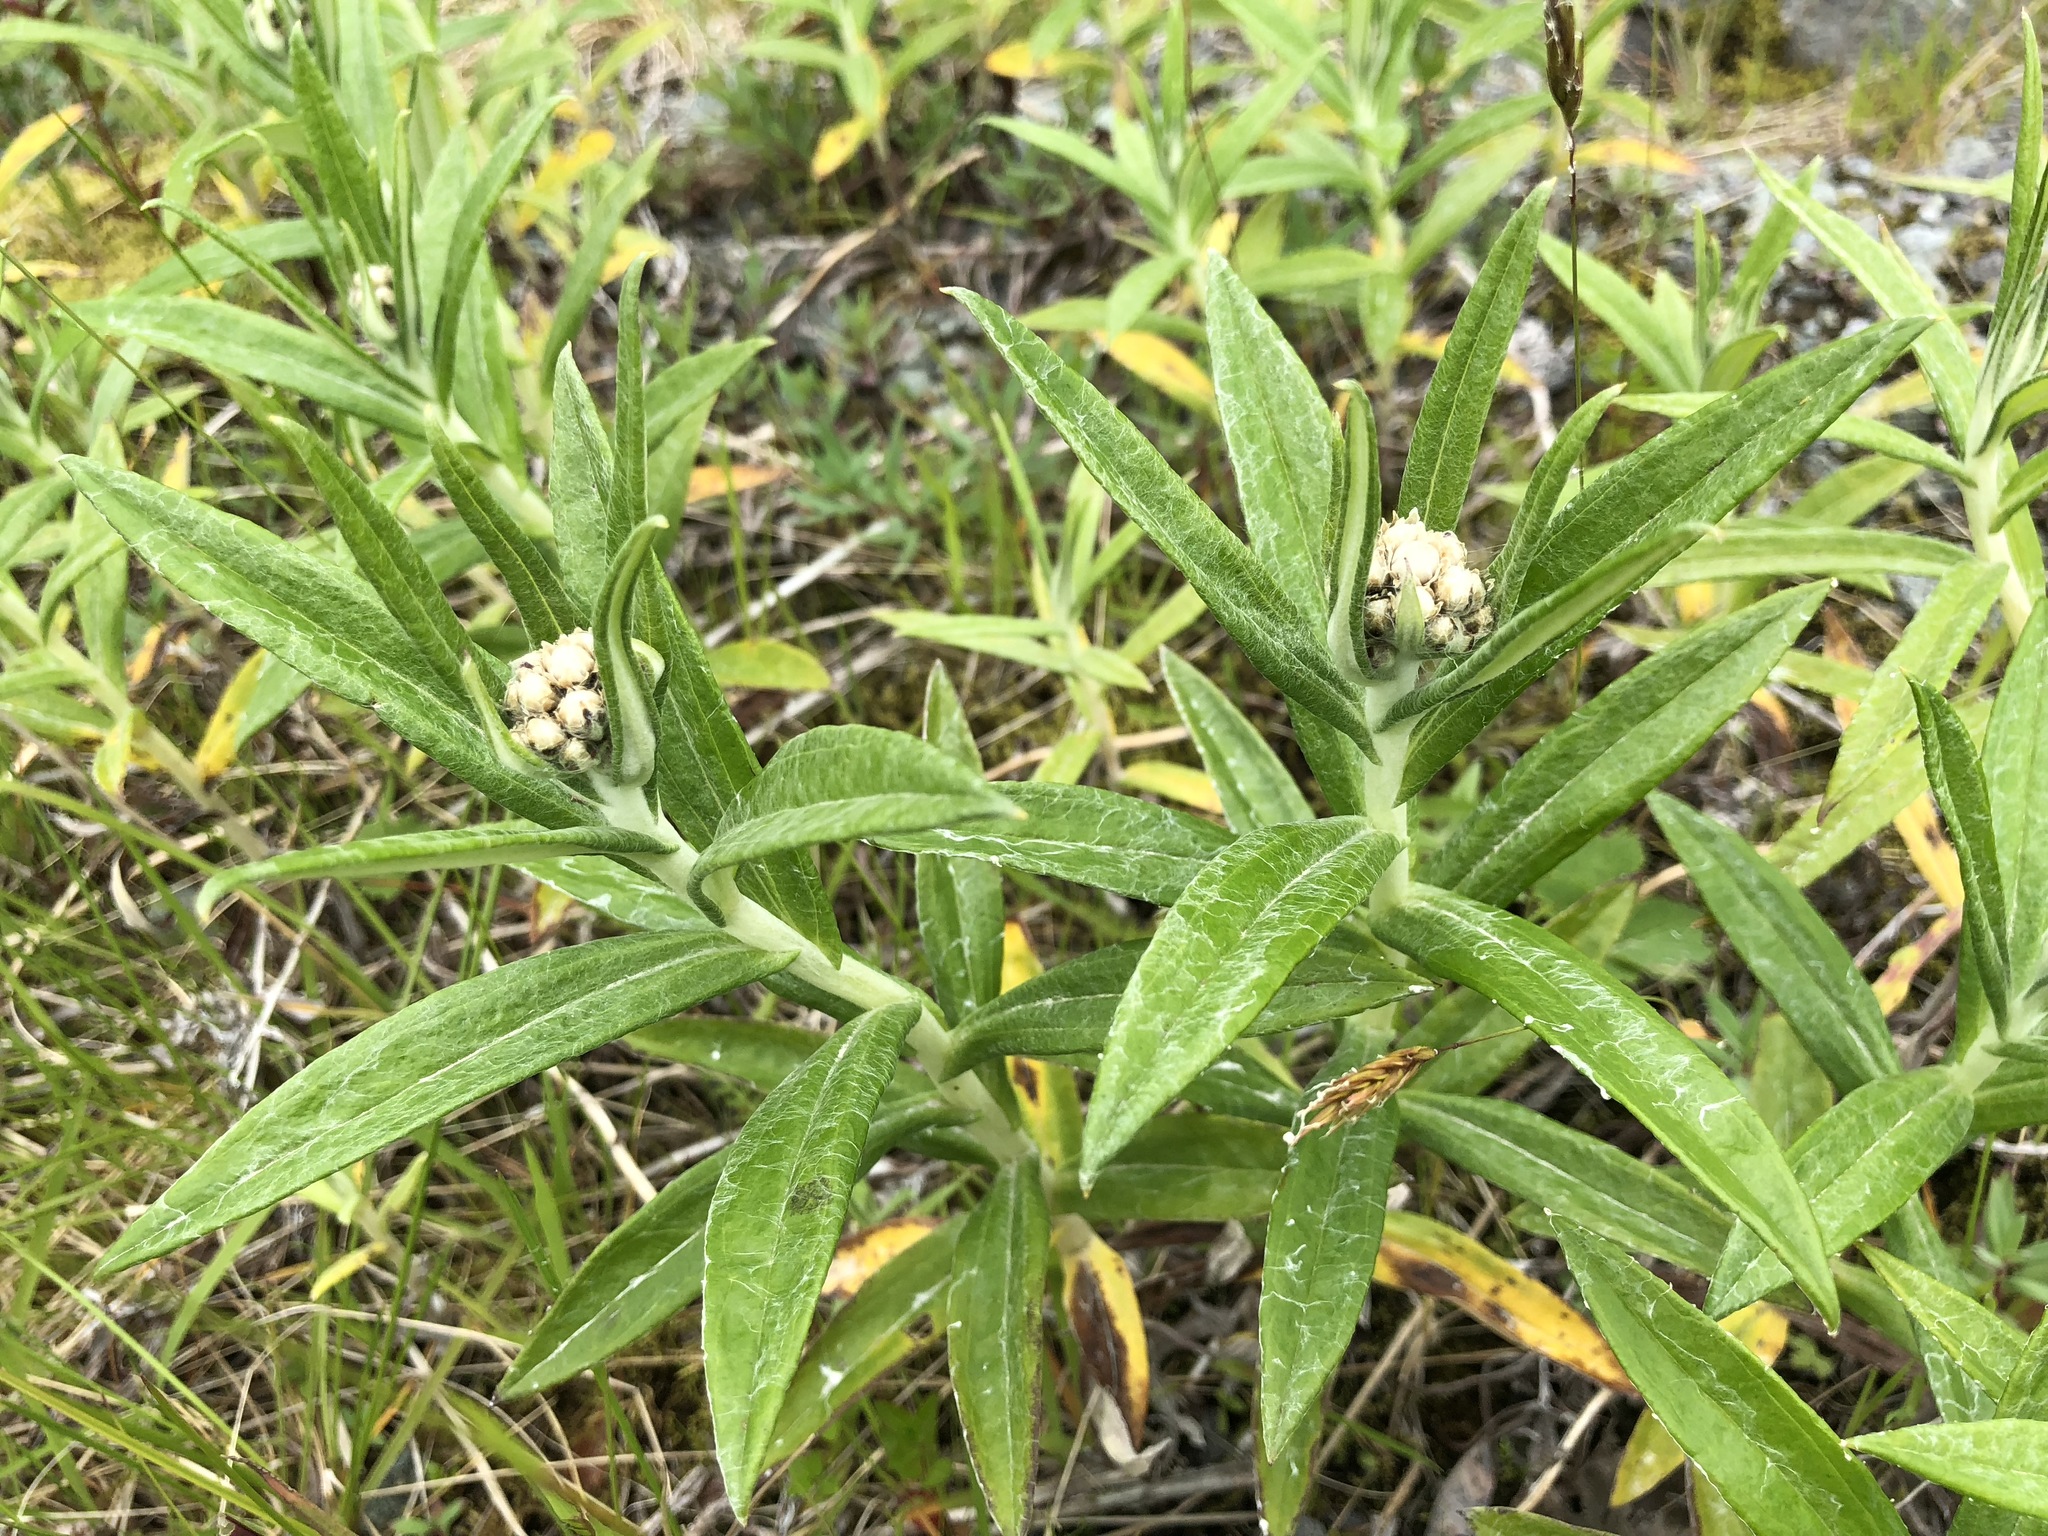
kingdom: Plantae
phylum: Tracheophyta
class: Magnoliopsida
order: Asterales
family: Asteraceae
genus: Anaphalis
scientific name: Anaphalis margaritacea
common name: Pearly everlasting
